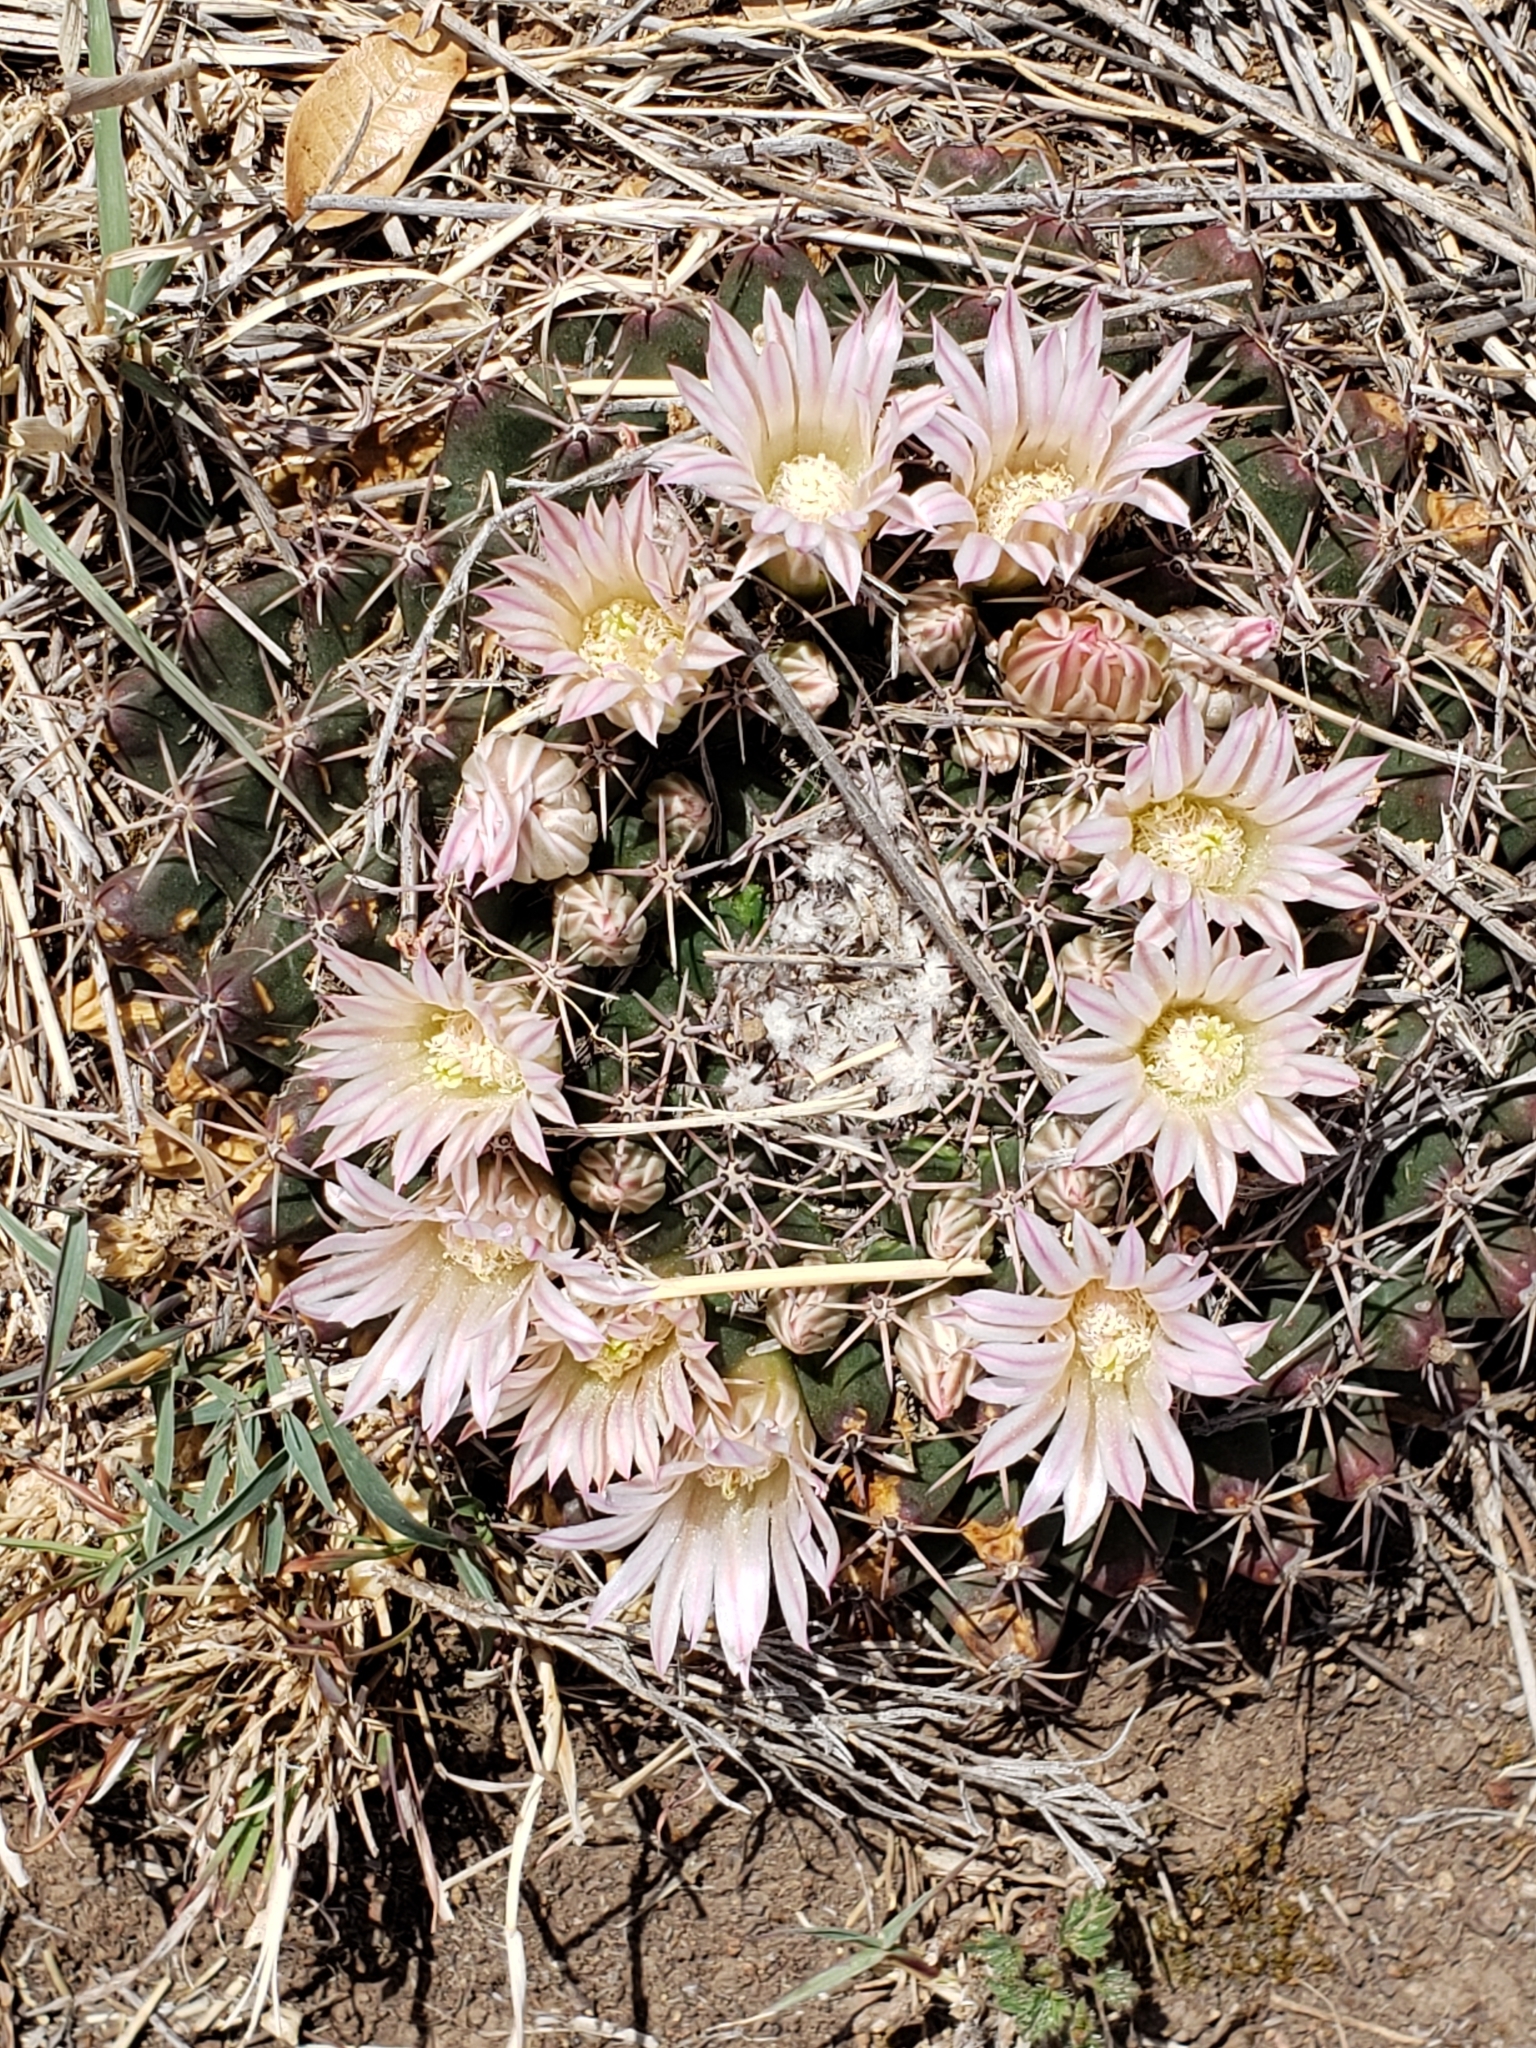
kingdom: Plantae
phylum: Tracheophyta
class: Magnoliopsida
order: Caryophyllales
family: Cactaceae
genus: Mammillaria
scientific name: Mammillaria heyderi
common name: Little nipple cactus
